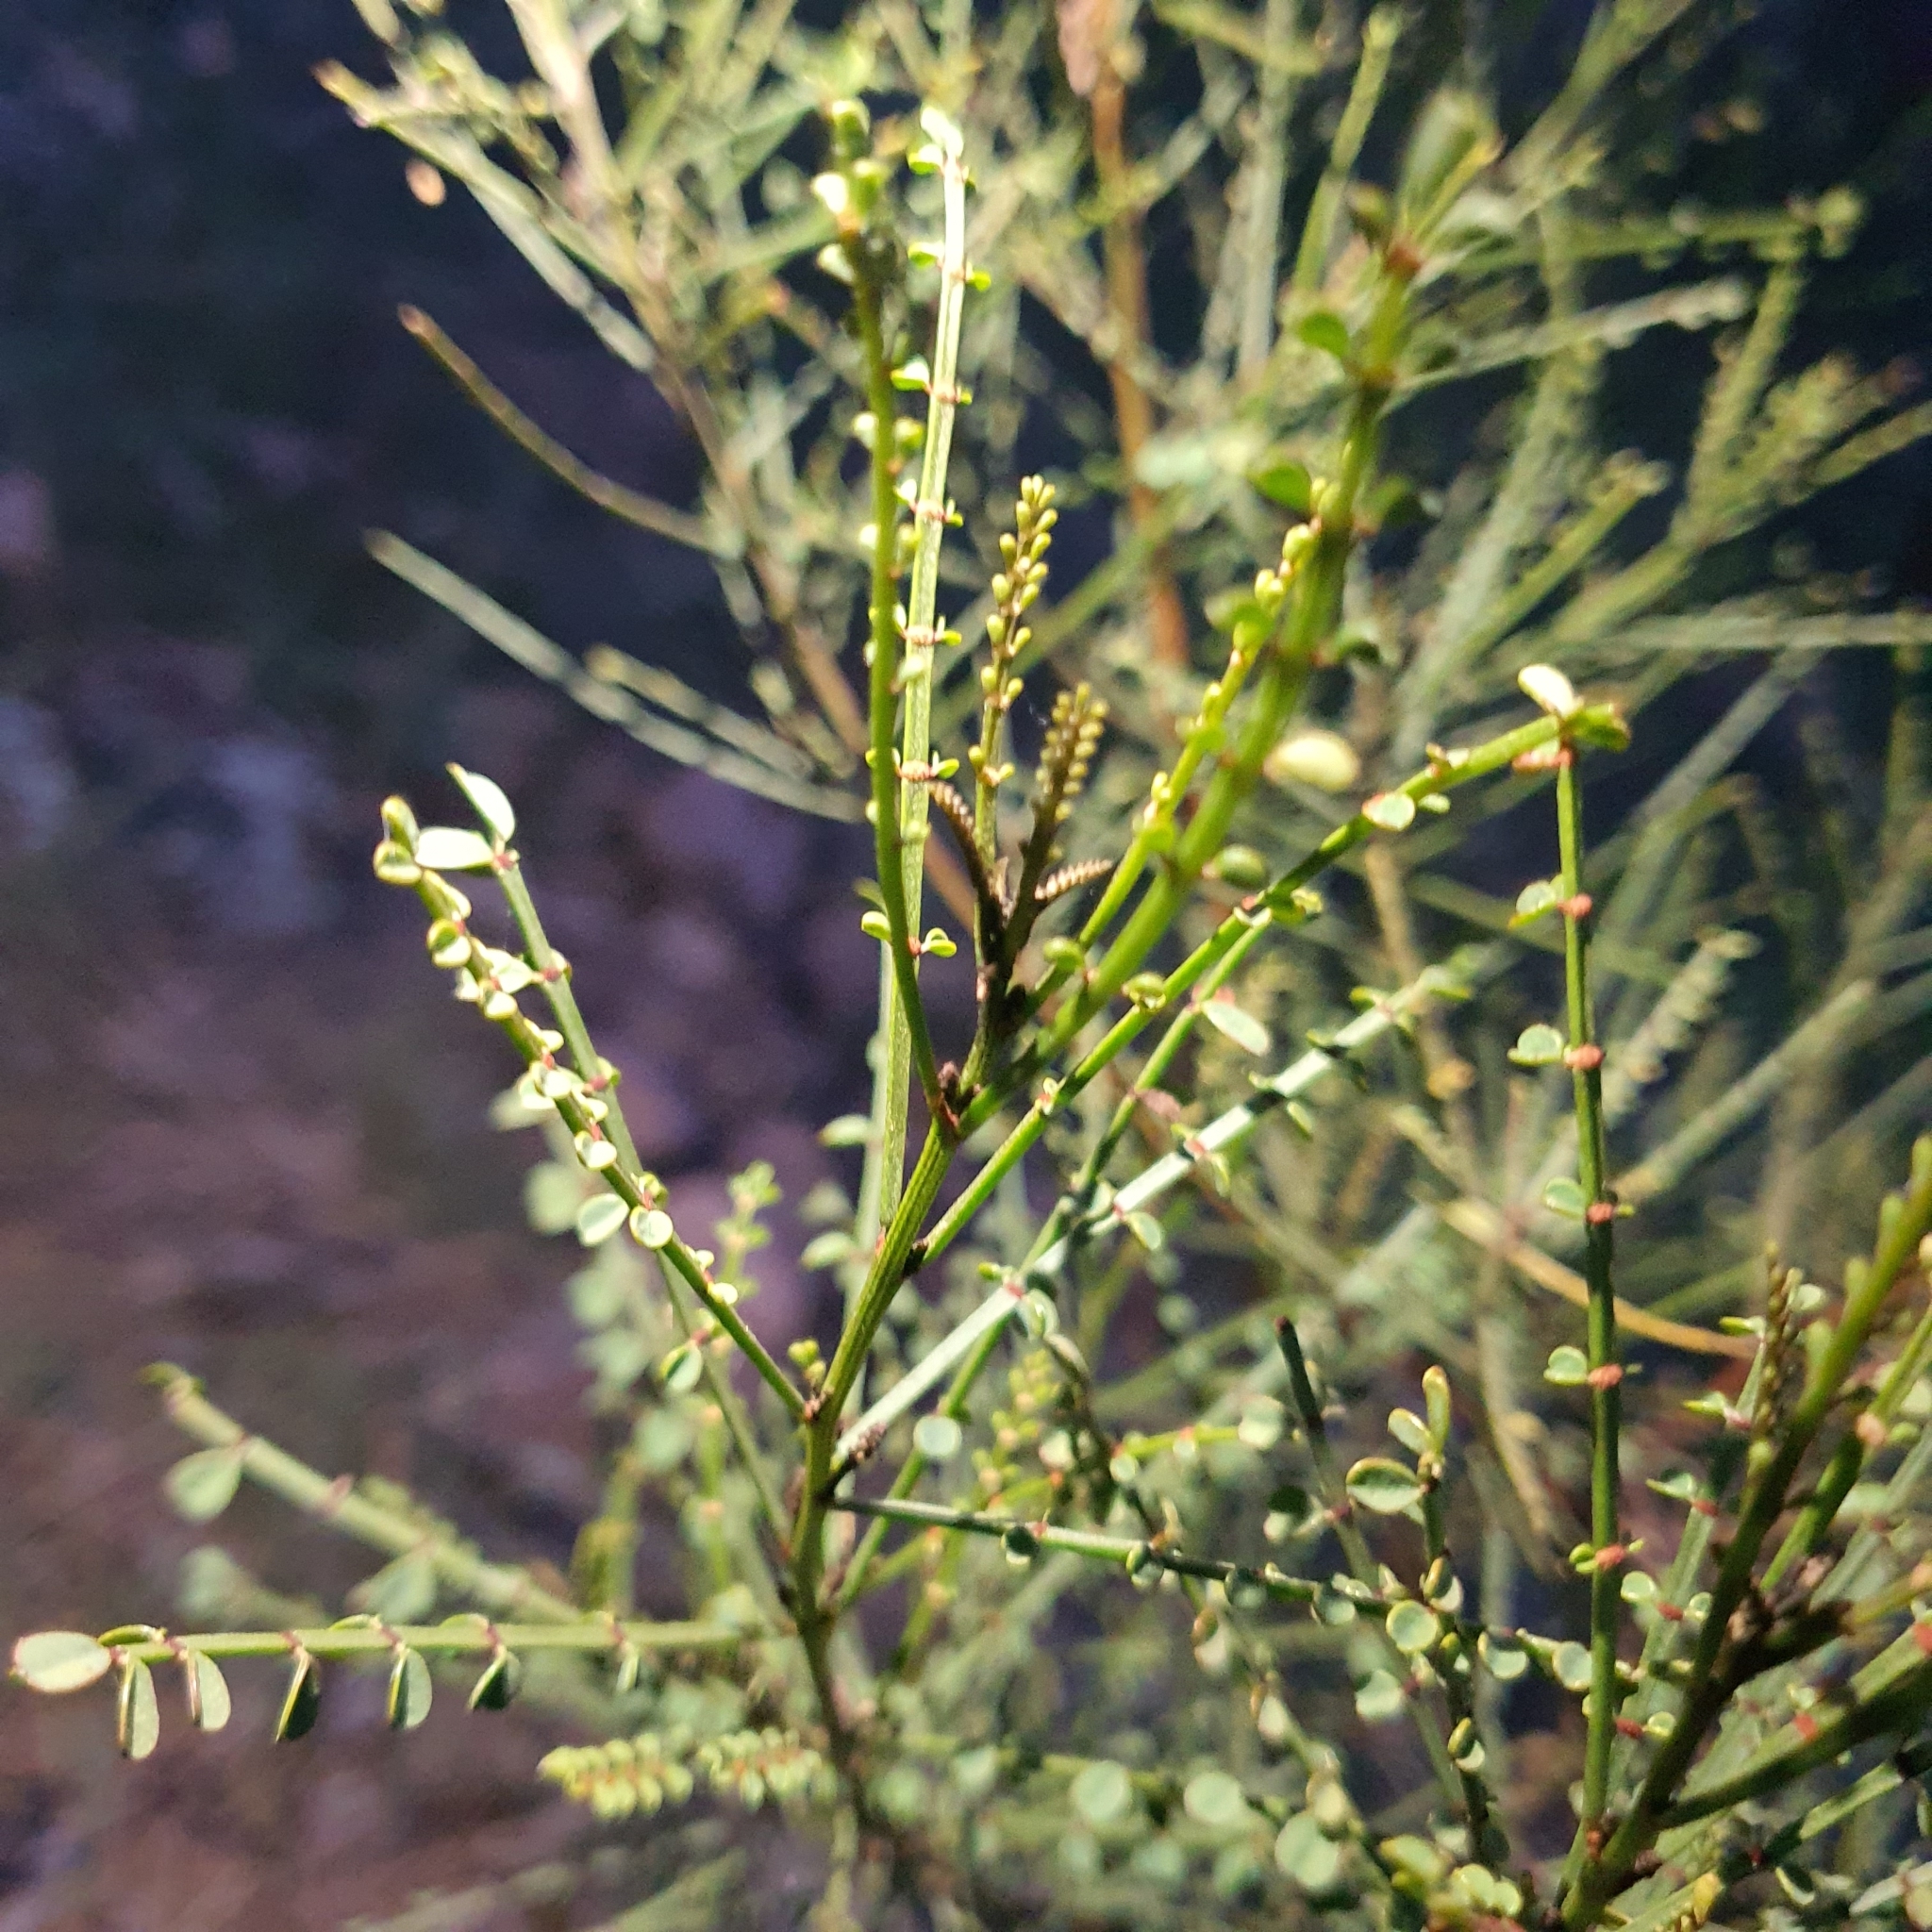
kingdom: Plantae
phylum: Tracheophyta
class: Magnoliopsida
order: Fabales
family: Fabaceae
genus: Indigofera
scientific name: Indigofera adesmiifolia
